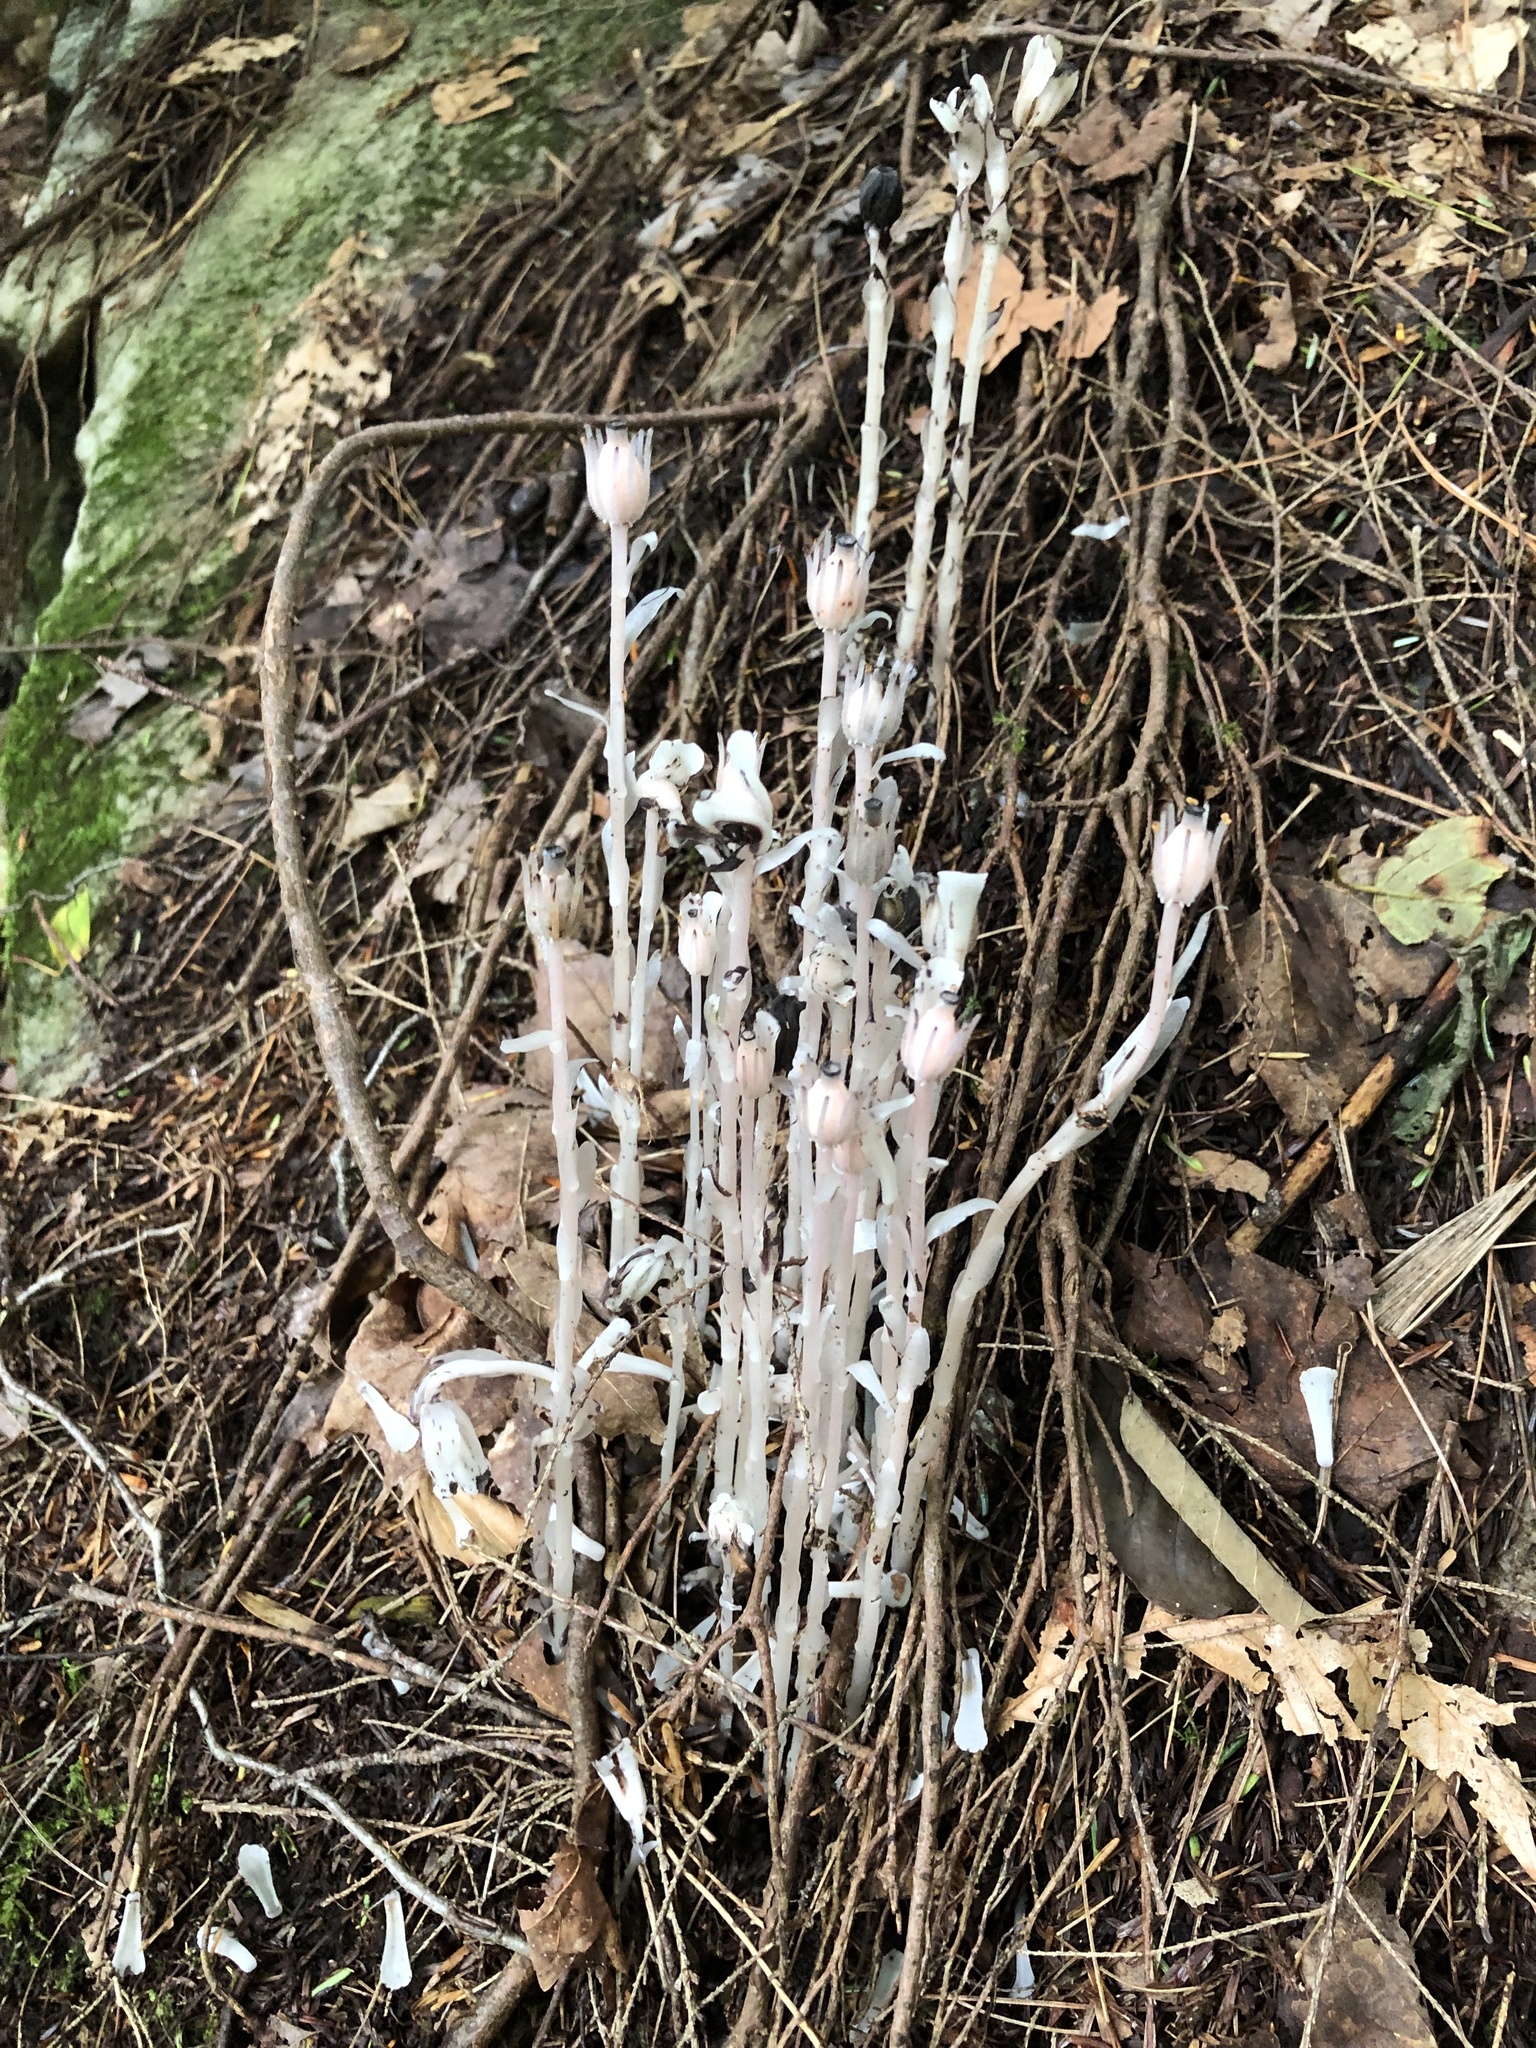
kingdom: Plantae
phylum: Tracheophyta
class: Magnoliopsida
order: Ericales
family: Ericaceae
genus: Monotropa
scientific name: Monotropa uniflora
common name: Convulsion root
